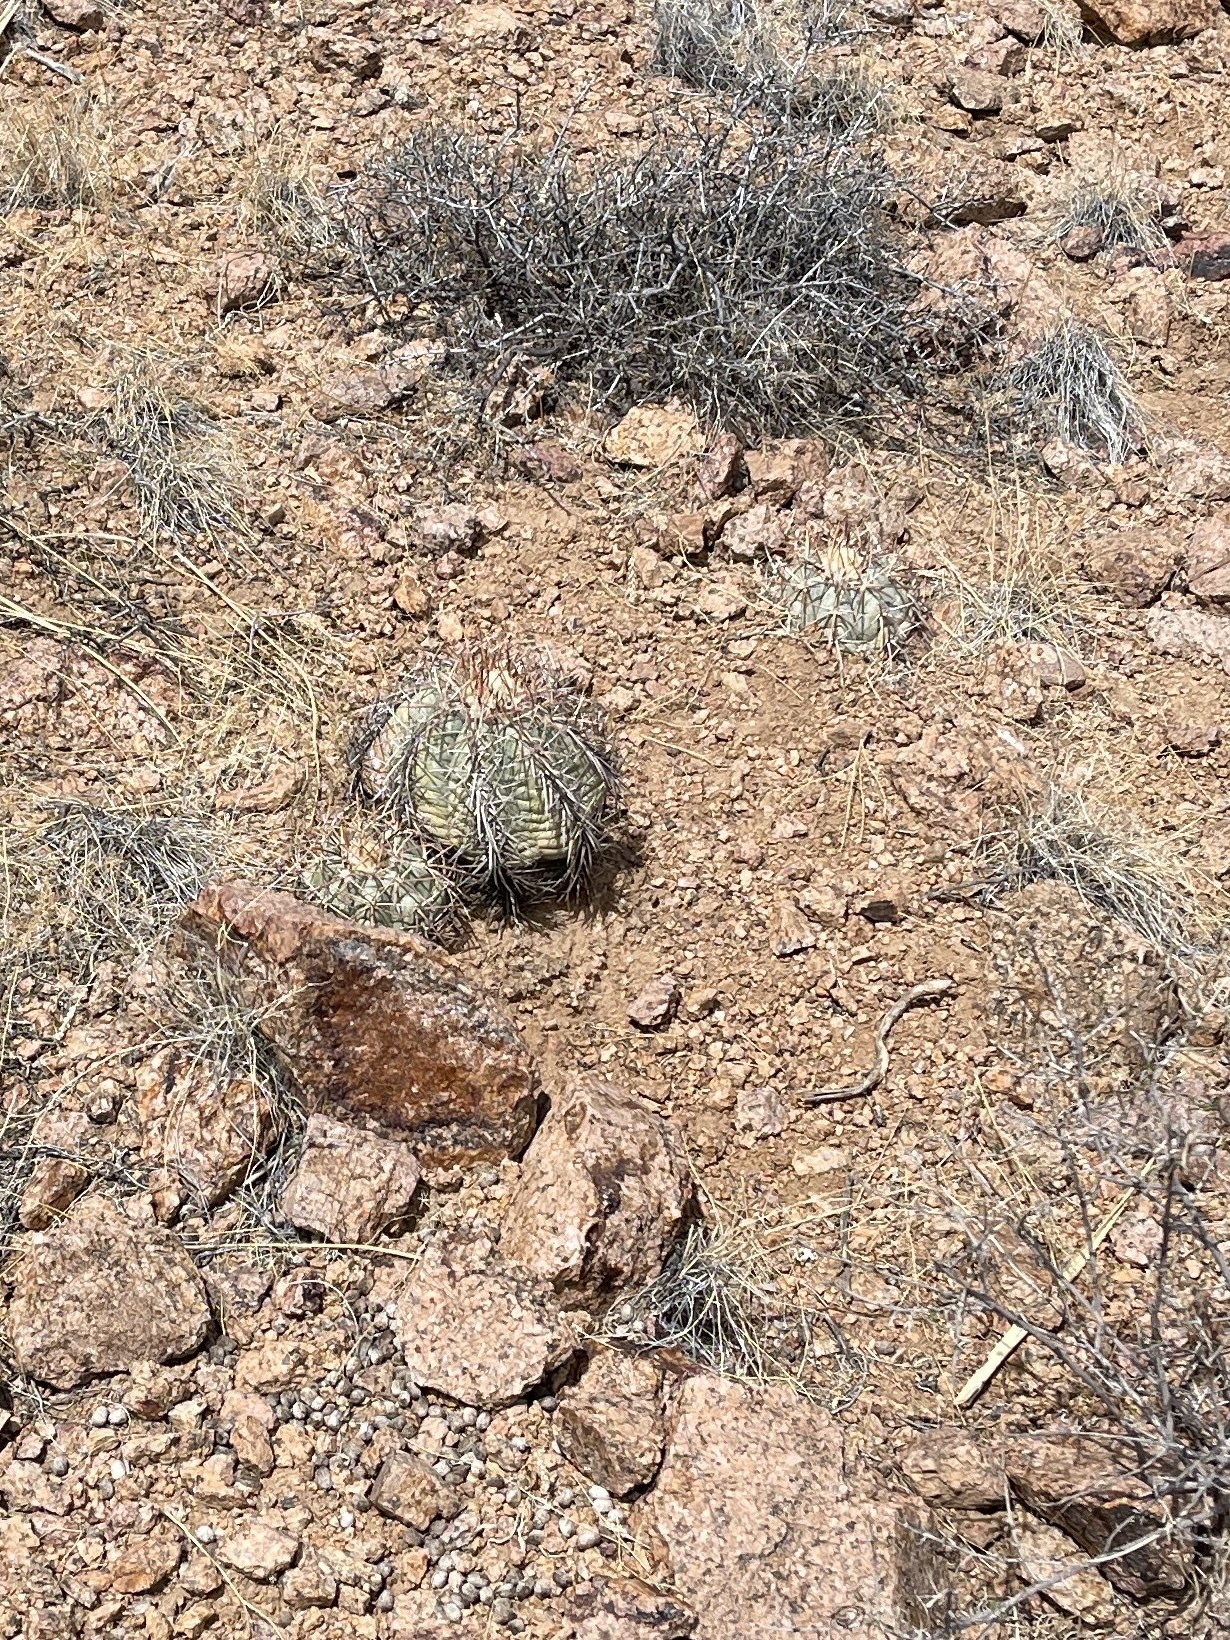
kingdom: Plantae
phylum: Tracheophyta
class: Magnoliopsida
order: Caryophyllales
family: Cactaceae
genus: Echinocactus
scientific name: Echinocactus horizonthalonius
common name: Devilshead
